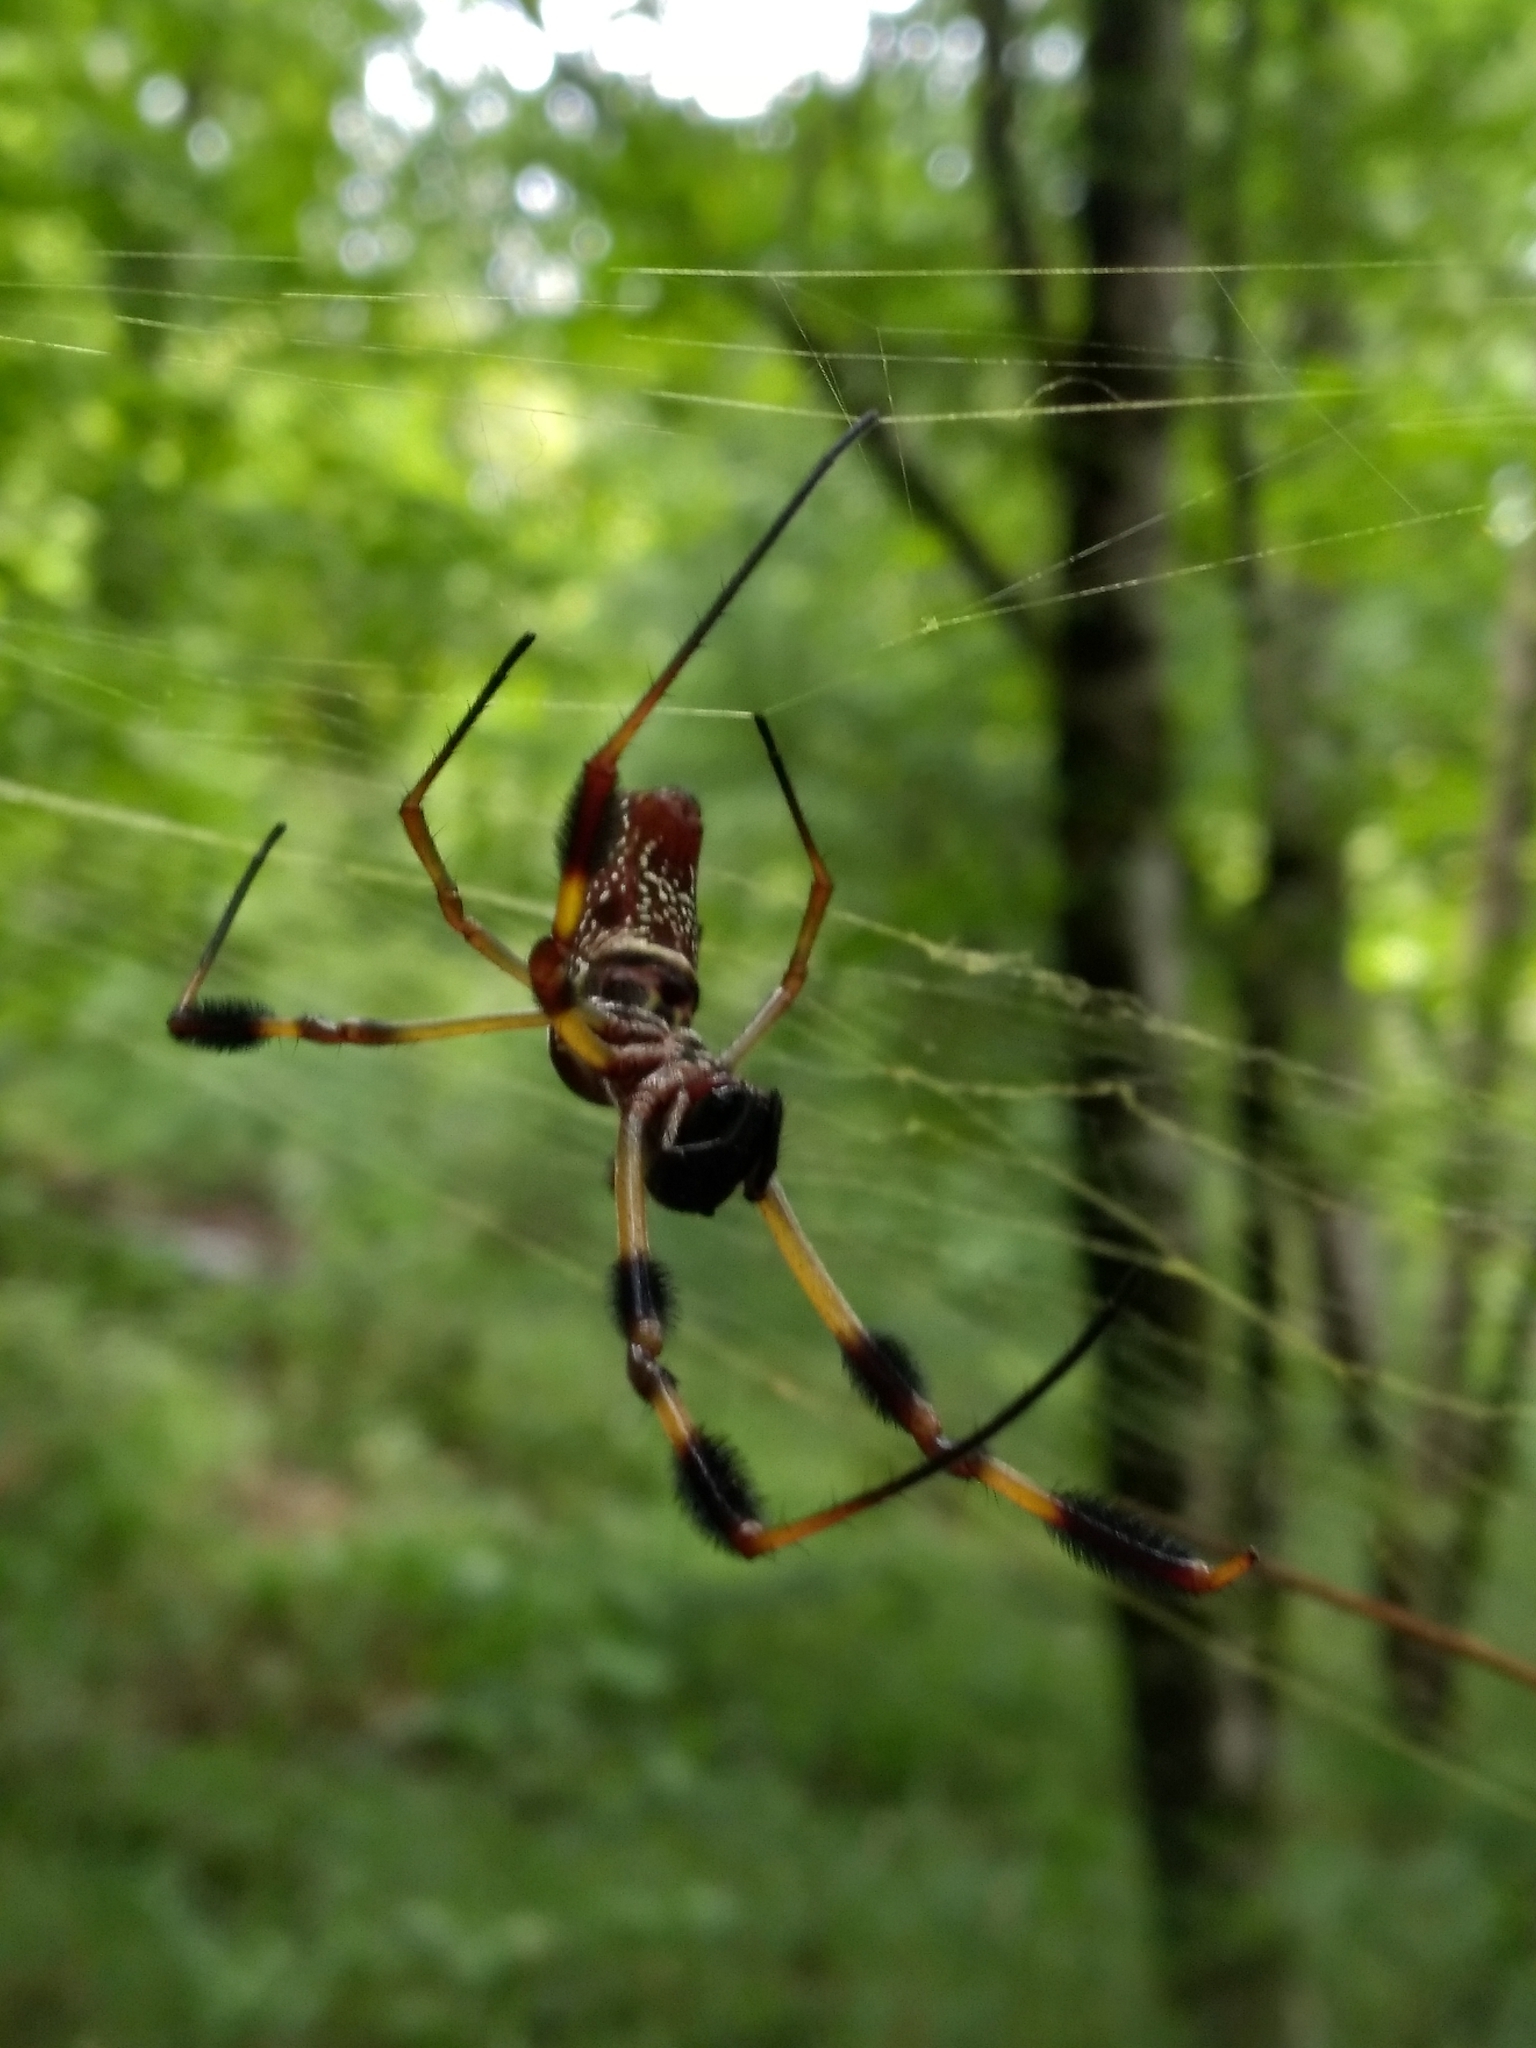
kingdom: Animalia
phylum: Arthropoda
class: Arachnida
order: Araneae
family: Araneidae
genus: Trichonephila
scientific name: Trichonephila clavipes
